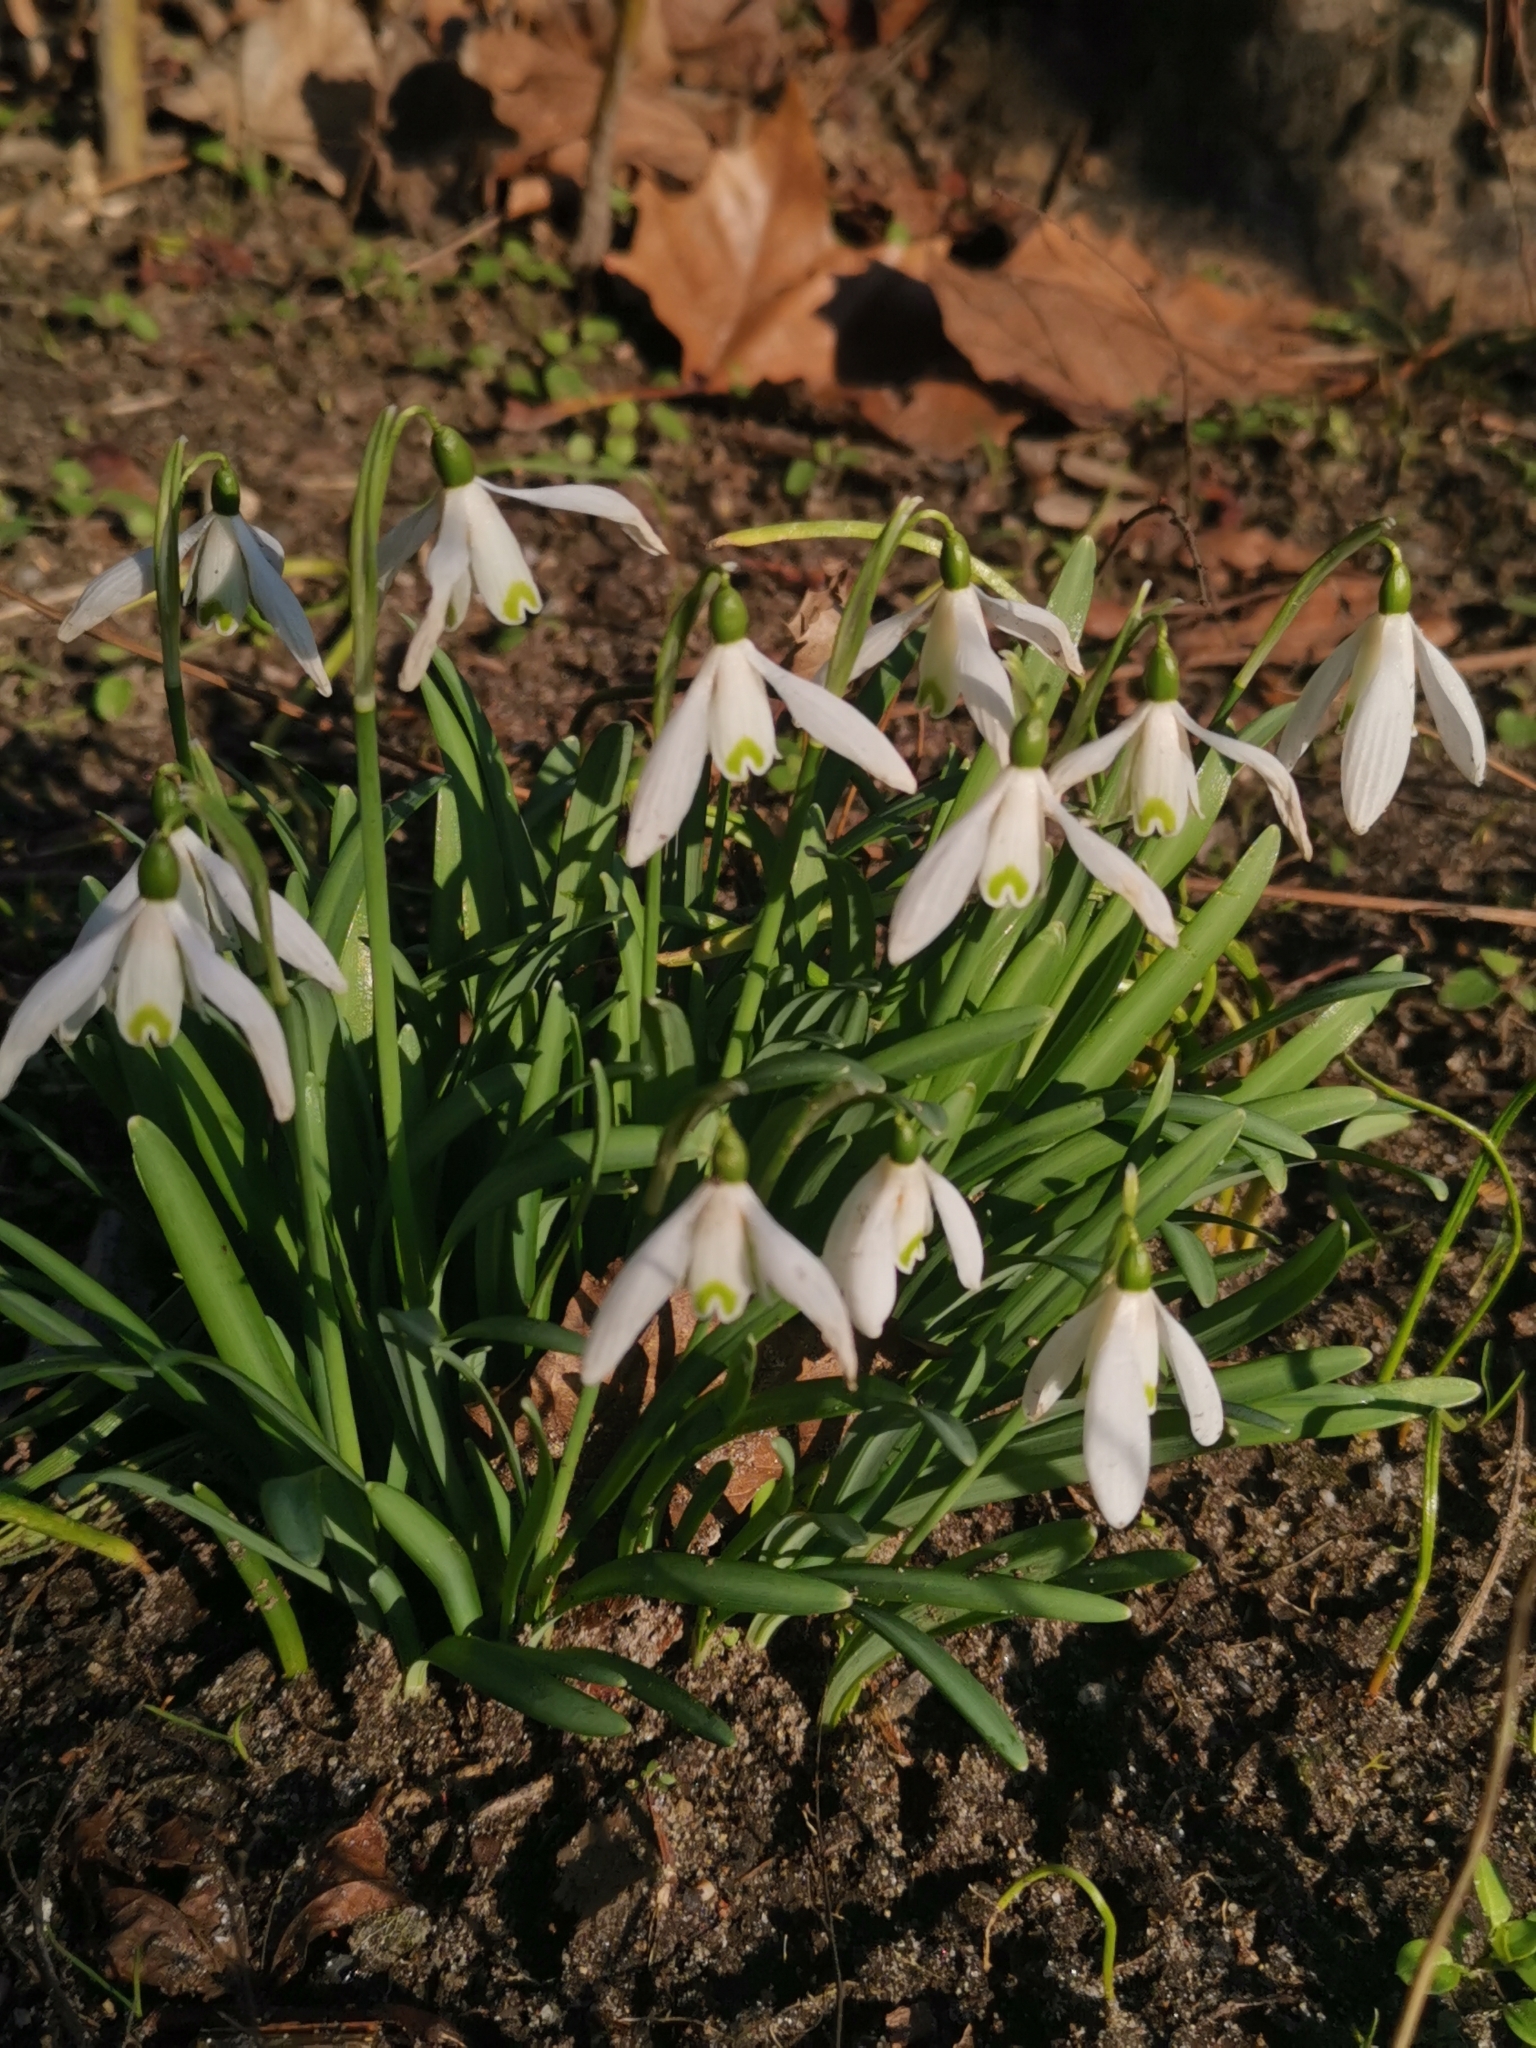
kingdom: Plantae
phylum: Tracheophyta
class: Liliopsida
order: Asparagales
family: Amaryllidaceae
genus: Galanthus
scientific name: Galanthus nivalis
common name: Snowdrop
